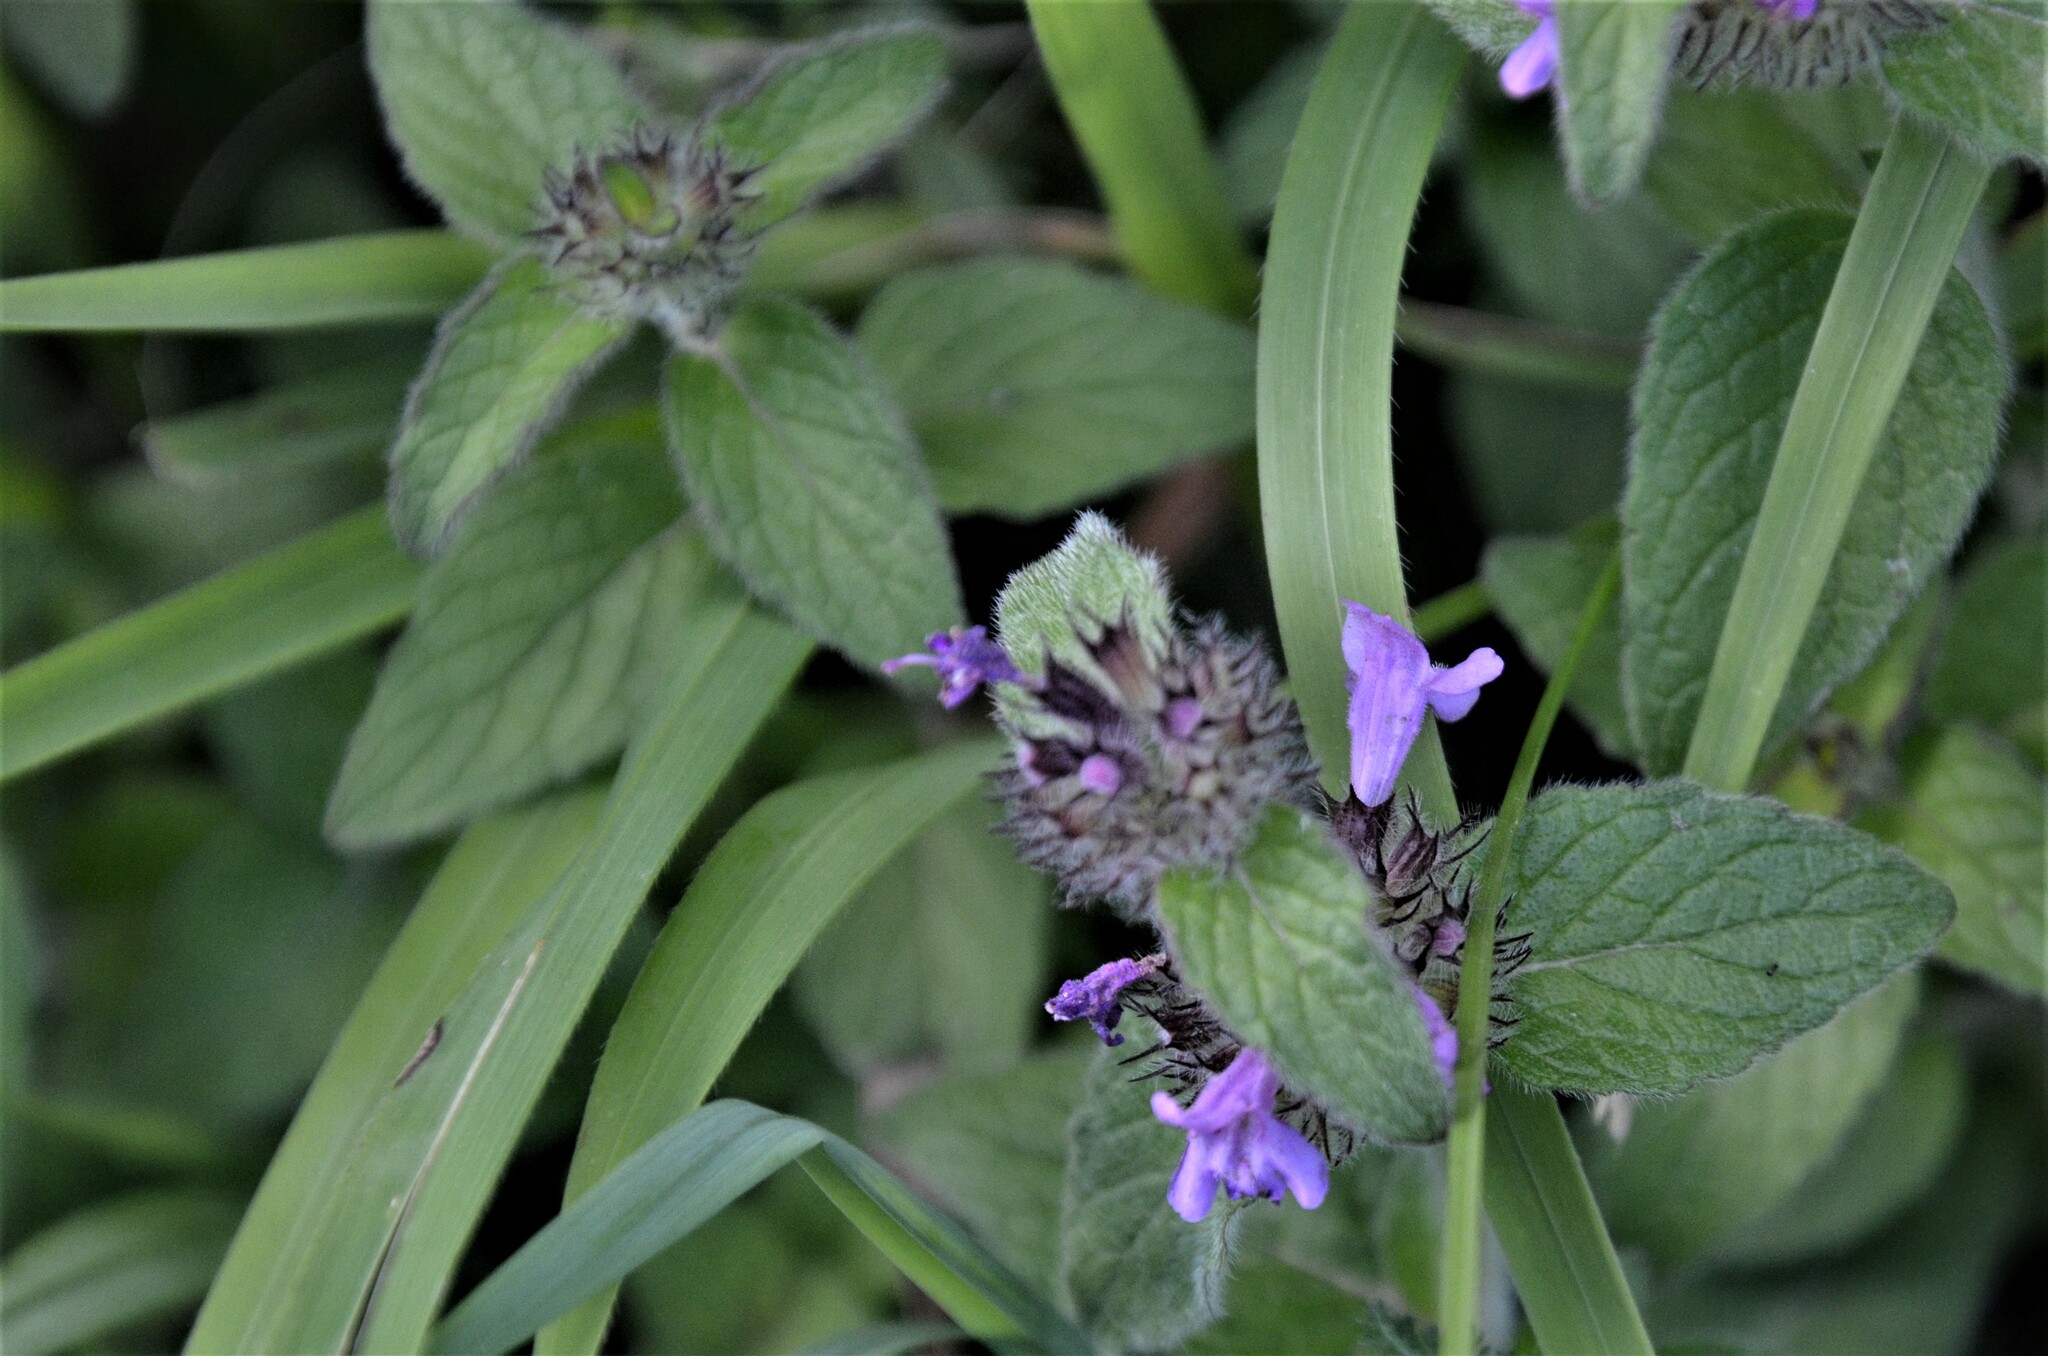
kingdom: Plantae
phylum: Tracheophyta
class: Magnoliopsida
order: Lamiales
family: Lamiaceae
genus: Clinopodium
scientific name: Clinopodium vulgare
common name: Wild basil
